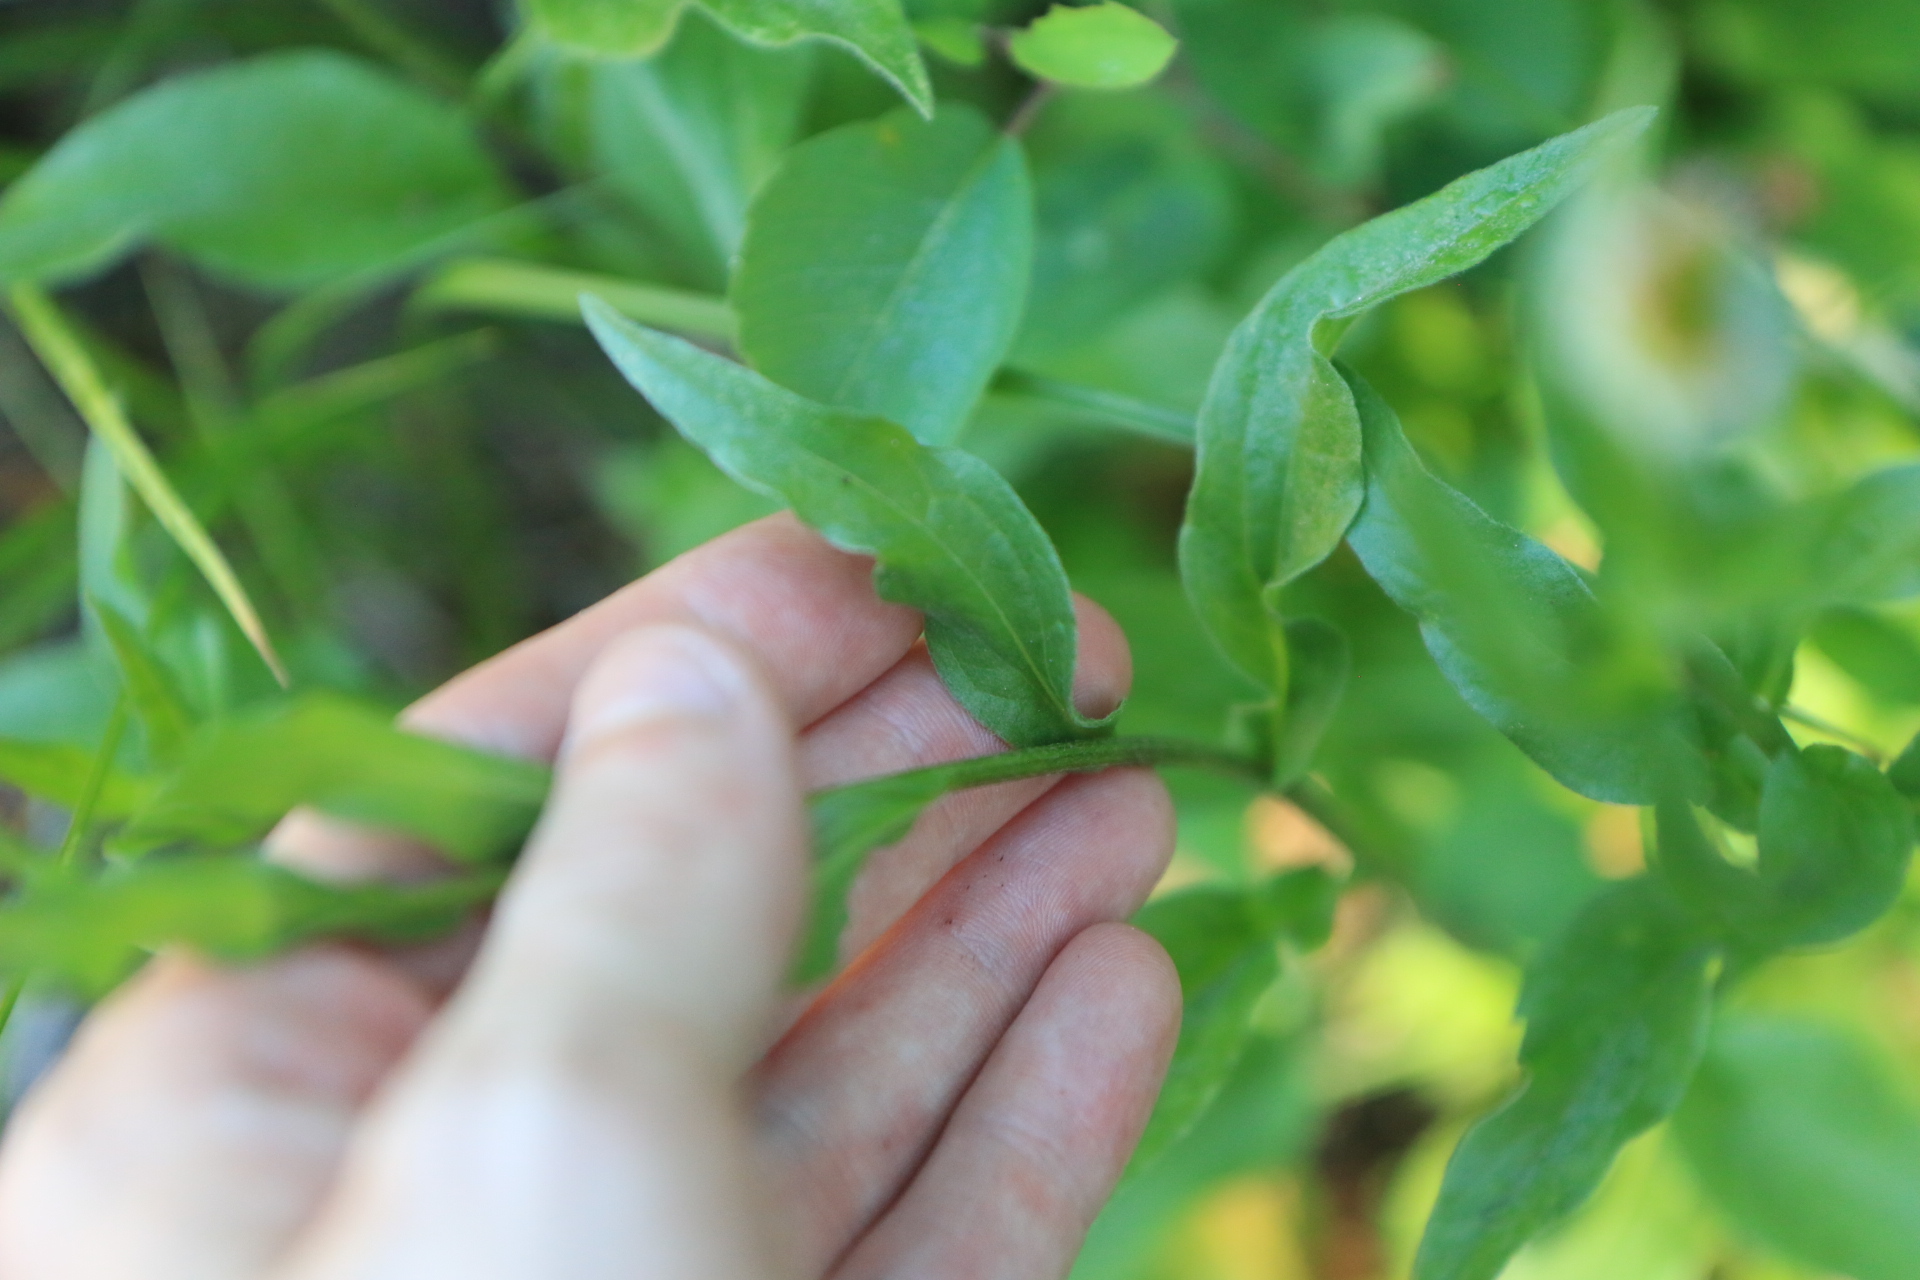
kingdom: Plantae
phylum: Tracheophyta
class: Magnoliopsida
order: Asterales
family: Asteraceae
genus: Erigeron
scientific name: Erigeron aliceae
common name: Alice eastwood's fleabane
